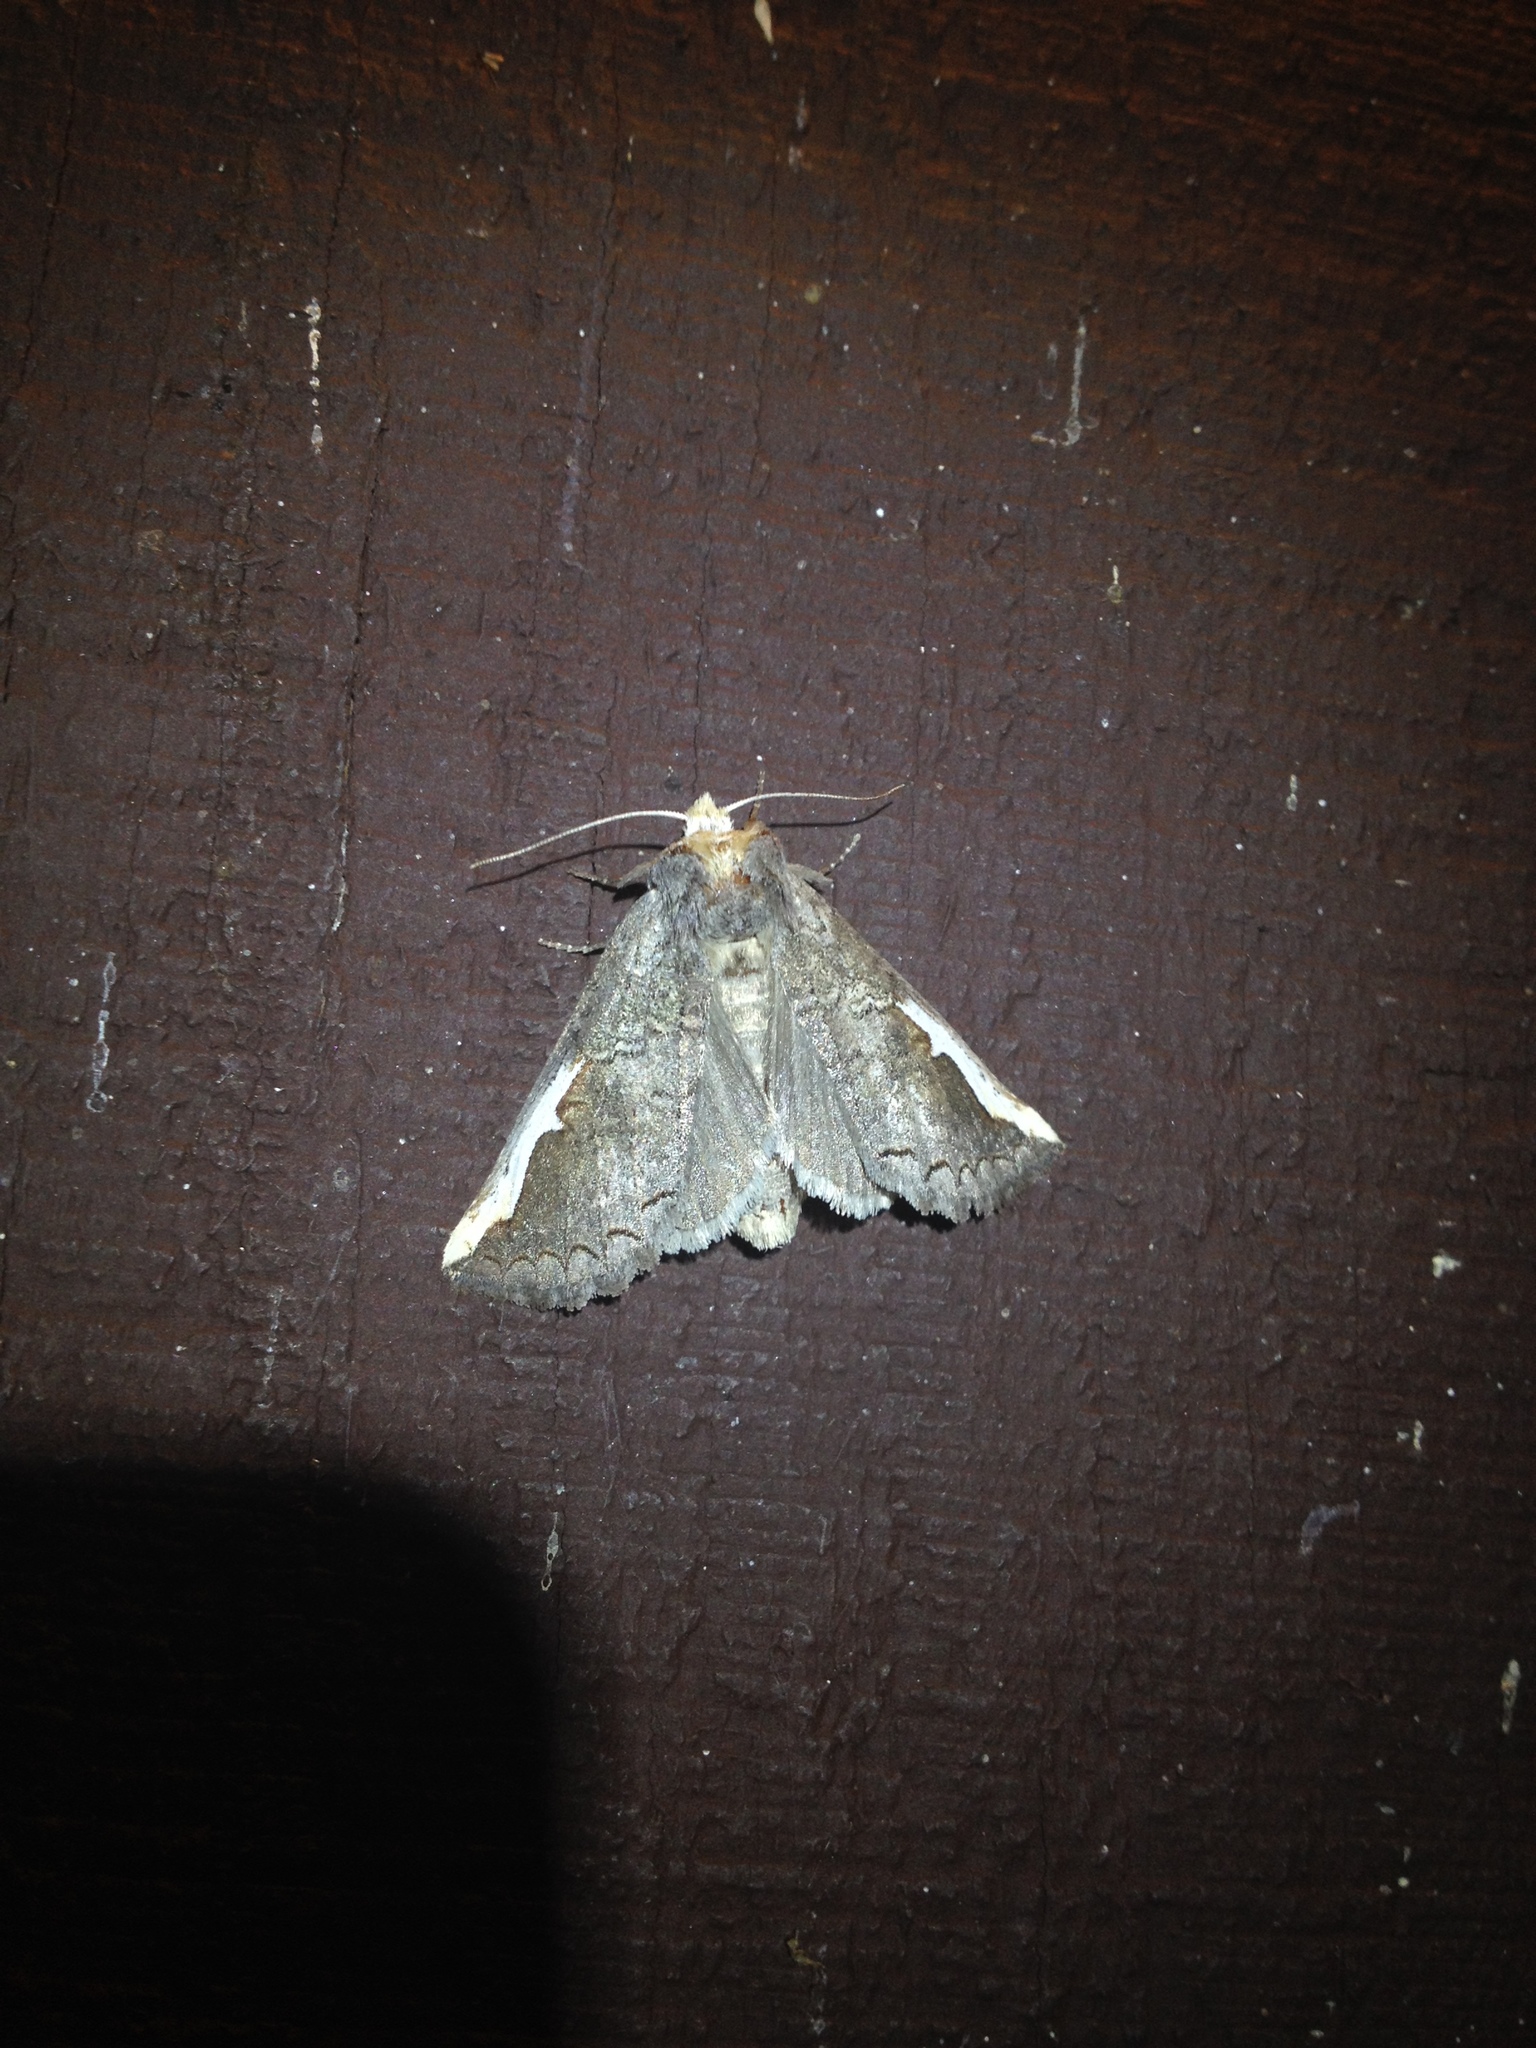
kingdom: Animalia
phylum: Arthropoda
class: Insecta
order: Lepidoptera
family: Notodontidae
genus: Symmerista
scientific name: Symmerista
